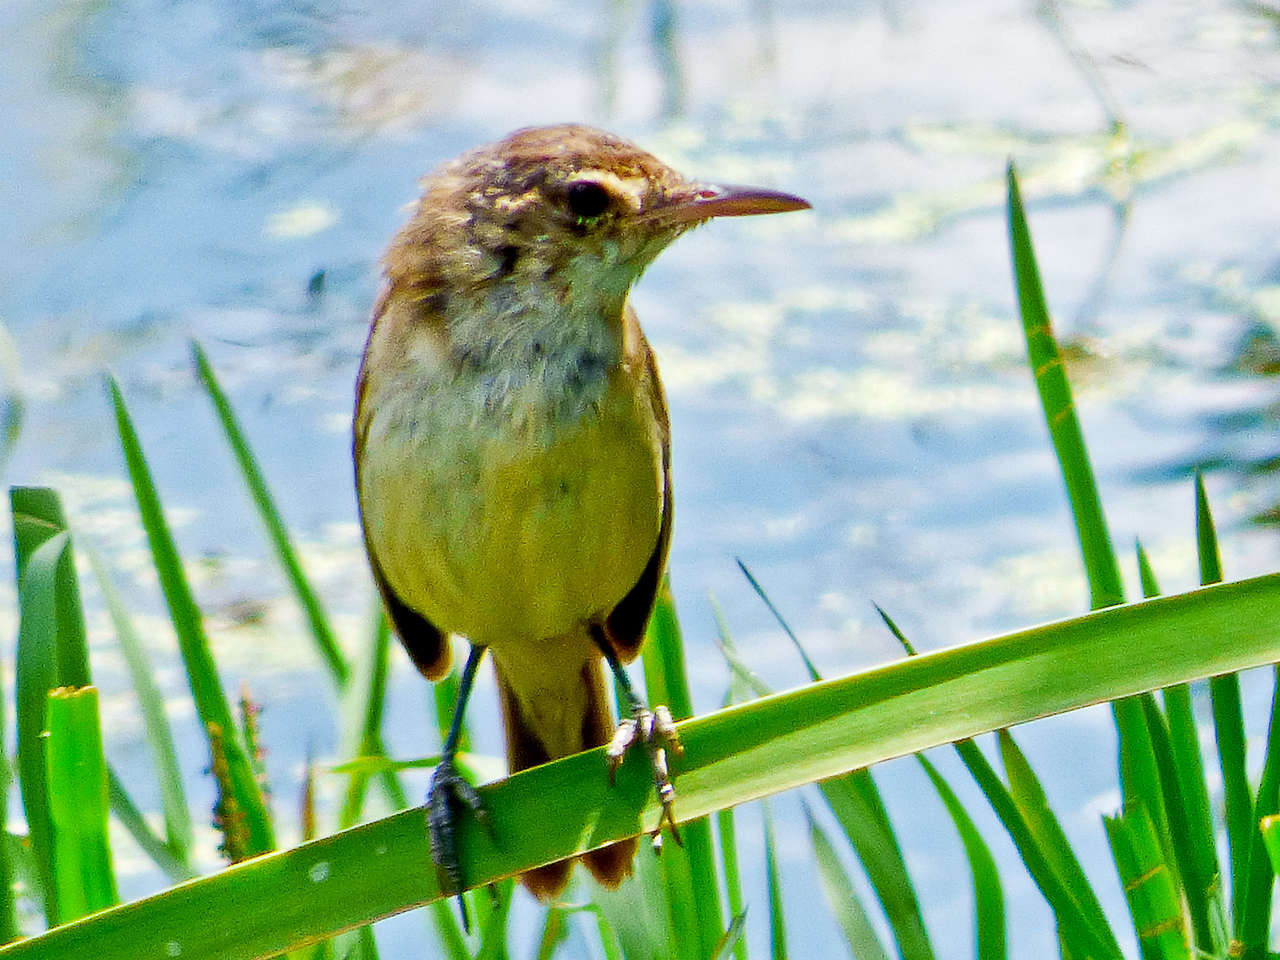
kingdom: Animalia
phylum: Chordata
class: Aves
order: Passeriformes
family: Acrocephalidae
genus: Acrocephalus
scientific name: Acrocephalus australis
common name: Australian reed warbler
